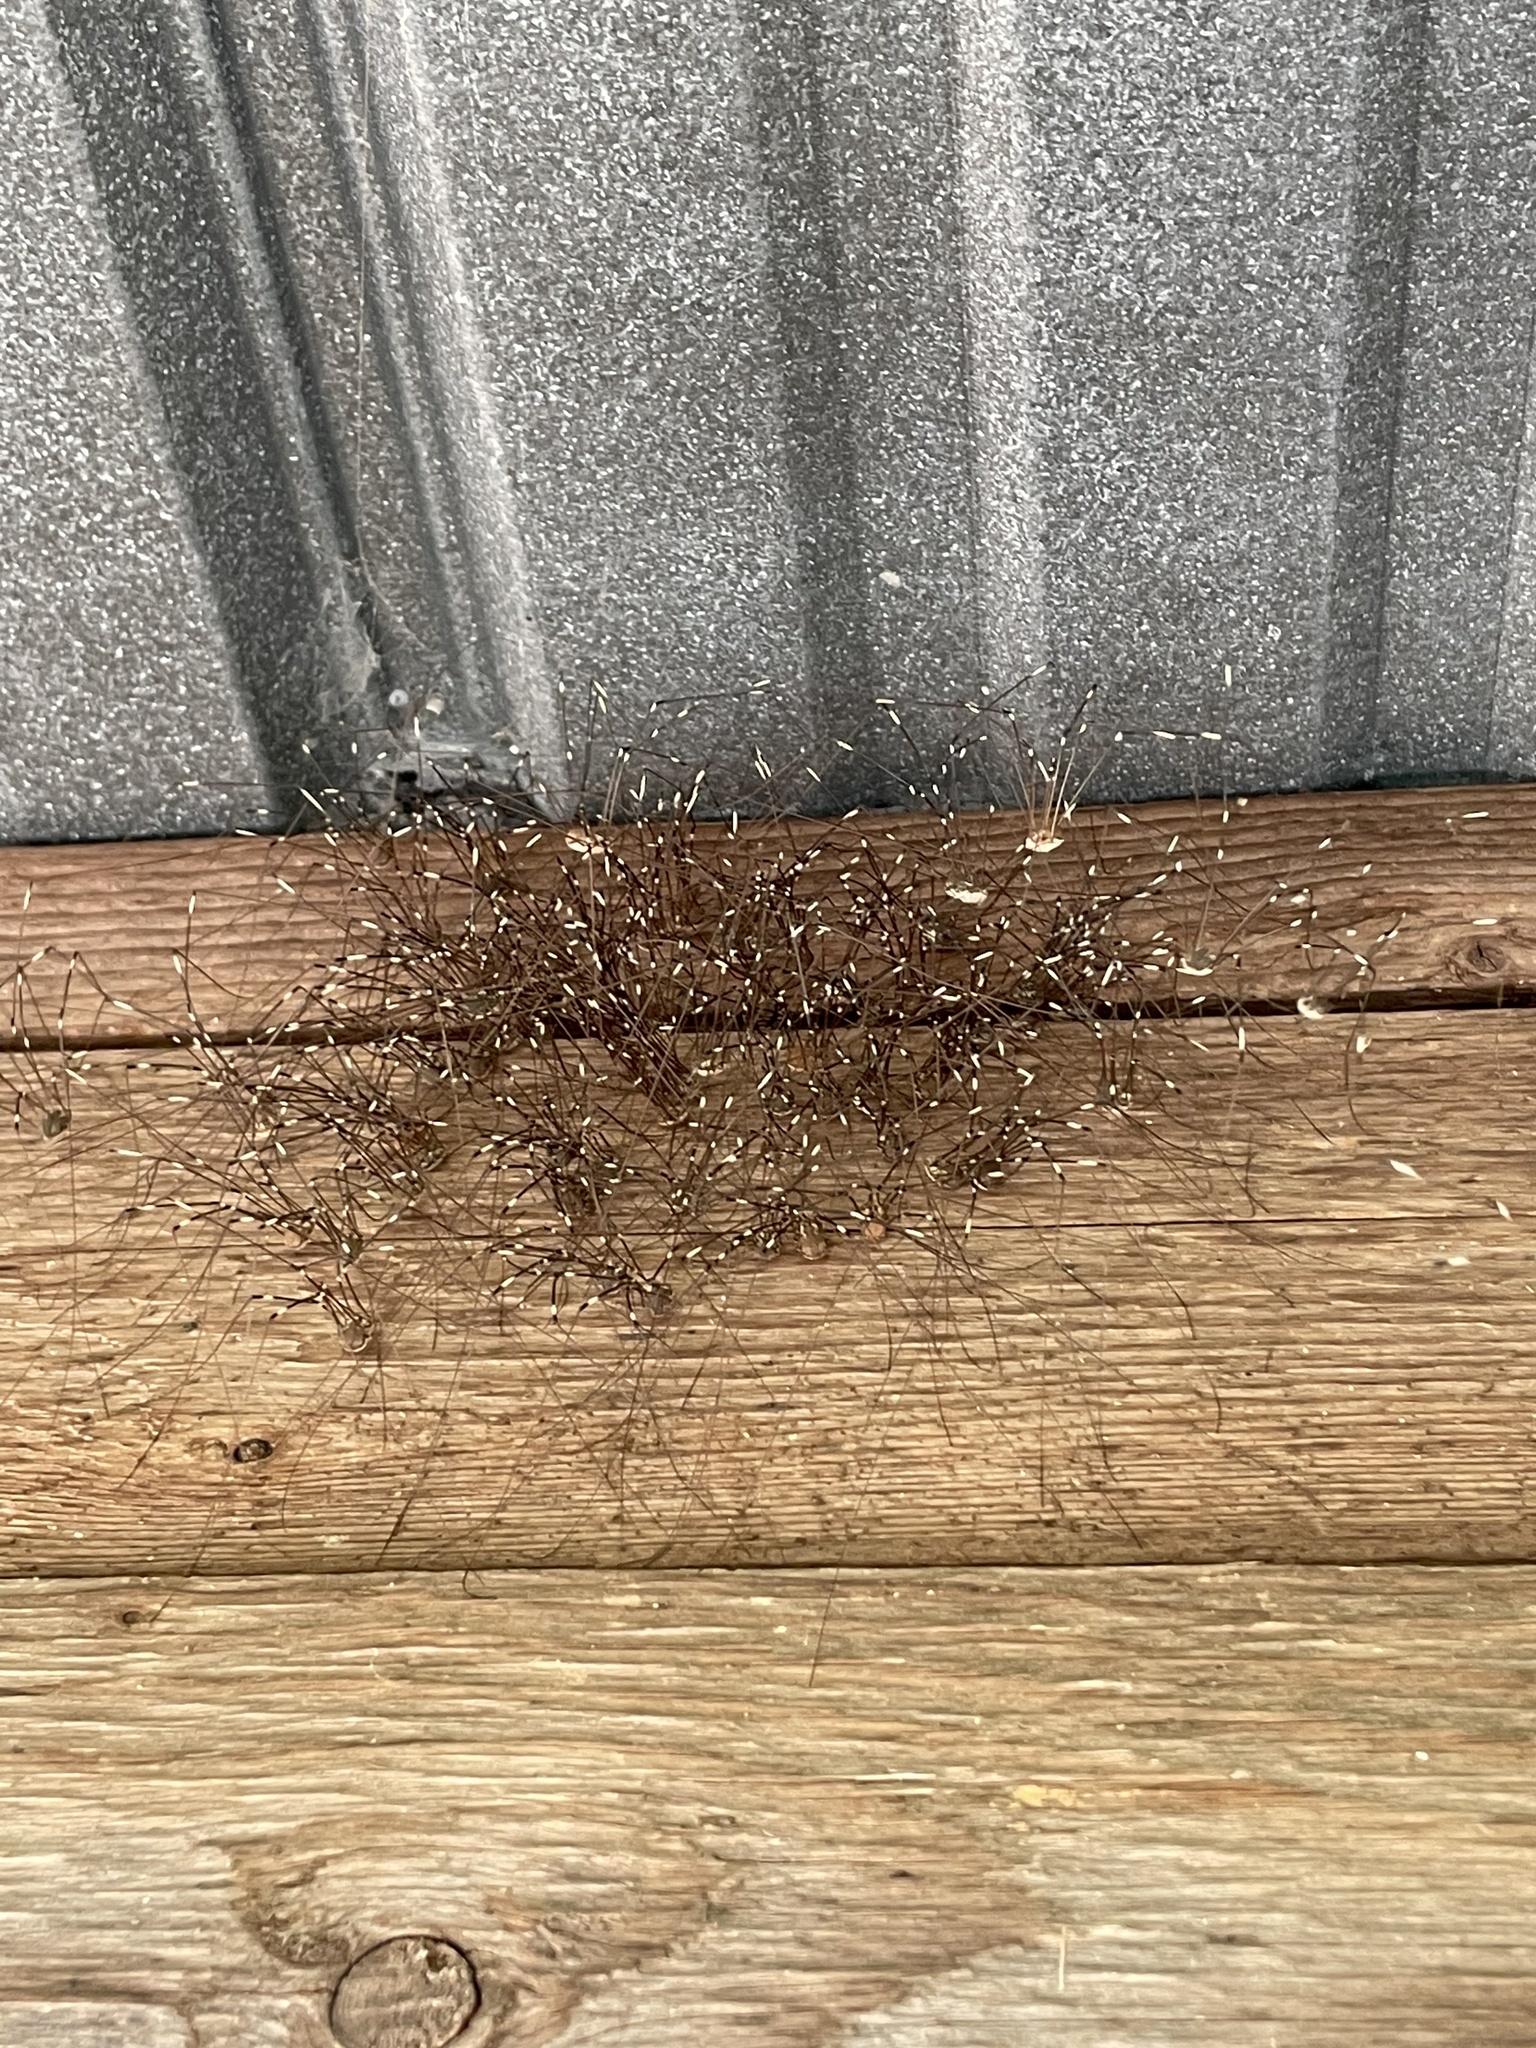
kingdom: Animalia
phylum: Arthropoda
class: Arachnida
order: Opiliones
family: Sclerosomatidae
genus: Leiobunum
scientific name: Leiobunum townsendi
